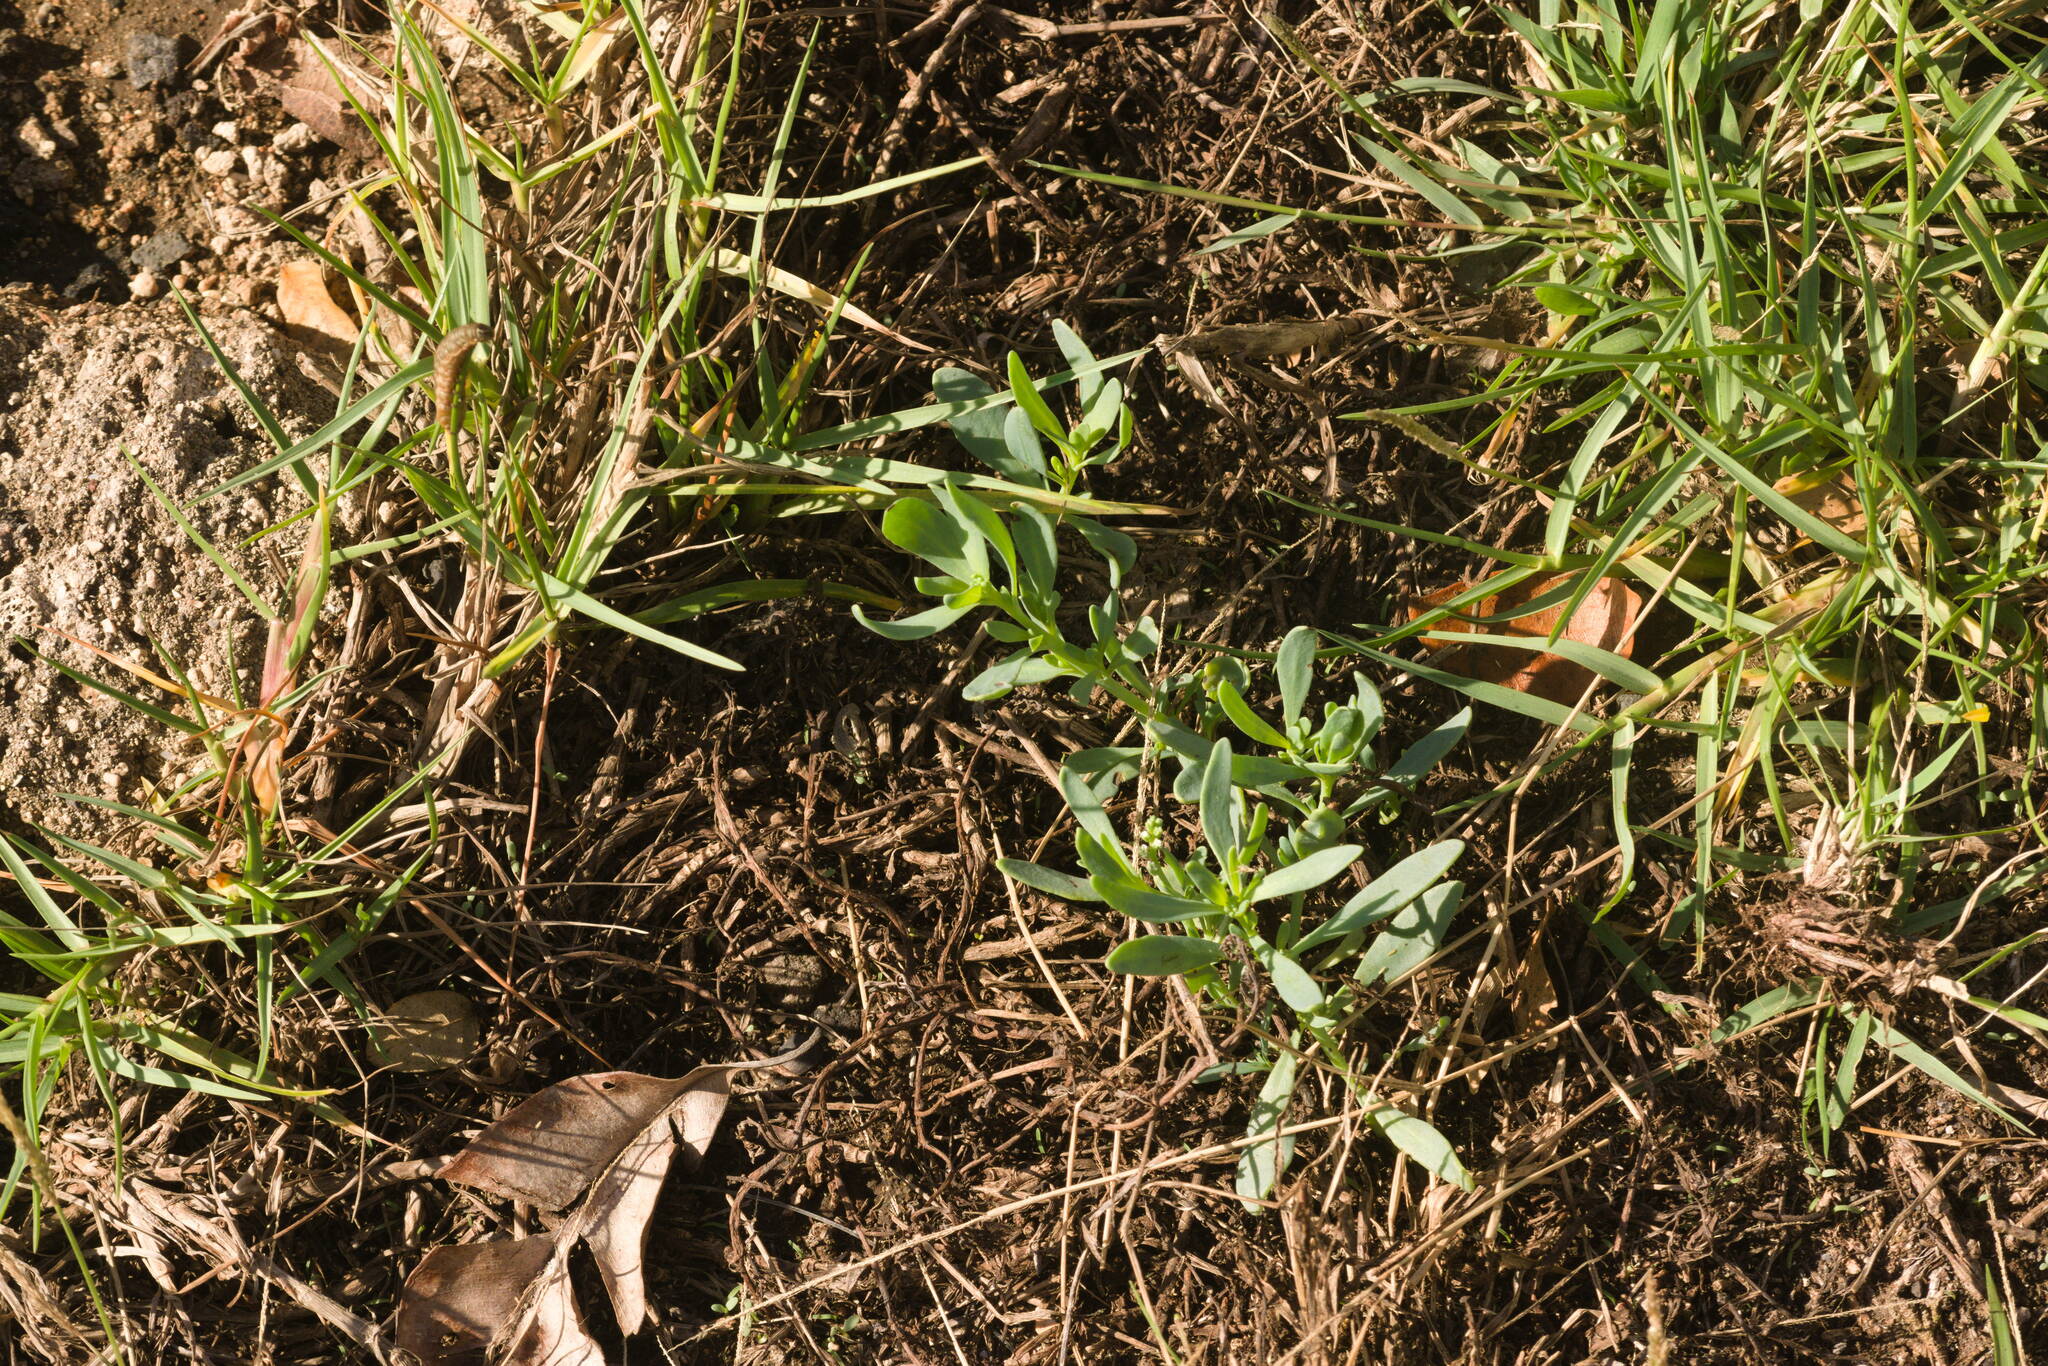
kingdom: Plantae
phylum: Tracheophyta
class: Magnoliopsida
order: Boraginales
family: Heliotropiaceae
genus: Heliotropium
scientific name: Heliotropium curassavicum
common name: Seaside heliotrope
